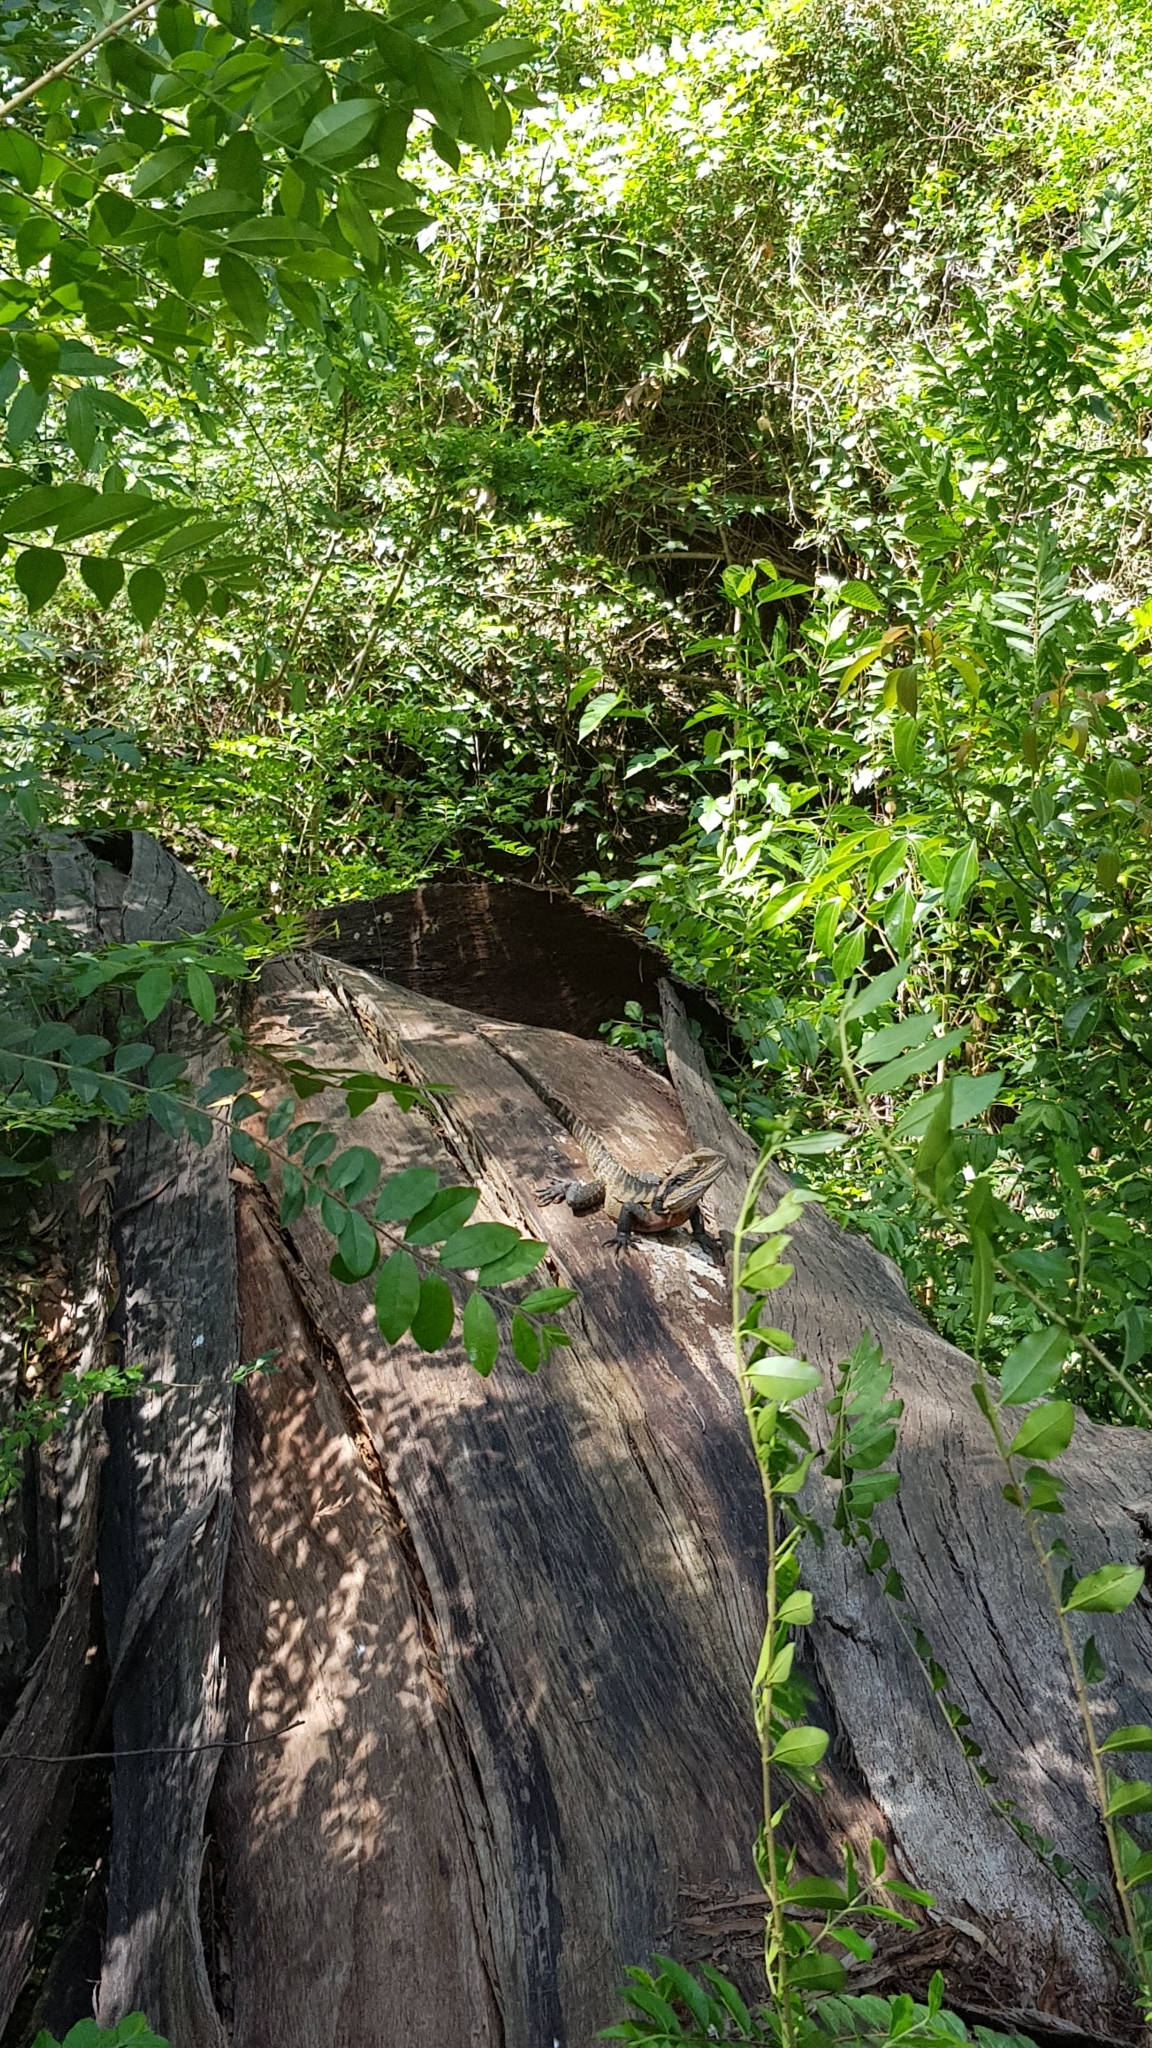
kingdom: Animalia
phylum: Chordata
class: Squamata
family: Agamidae
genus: Intellagama
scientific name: Intellagama lesueurii
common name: Eastern water dragon
